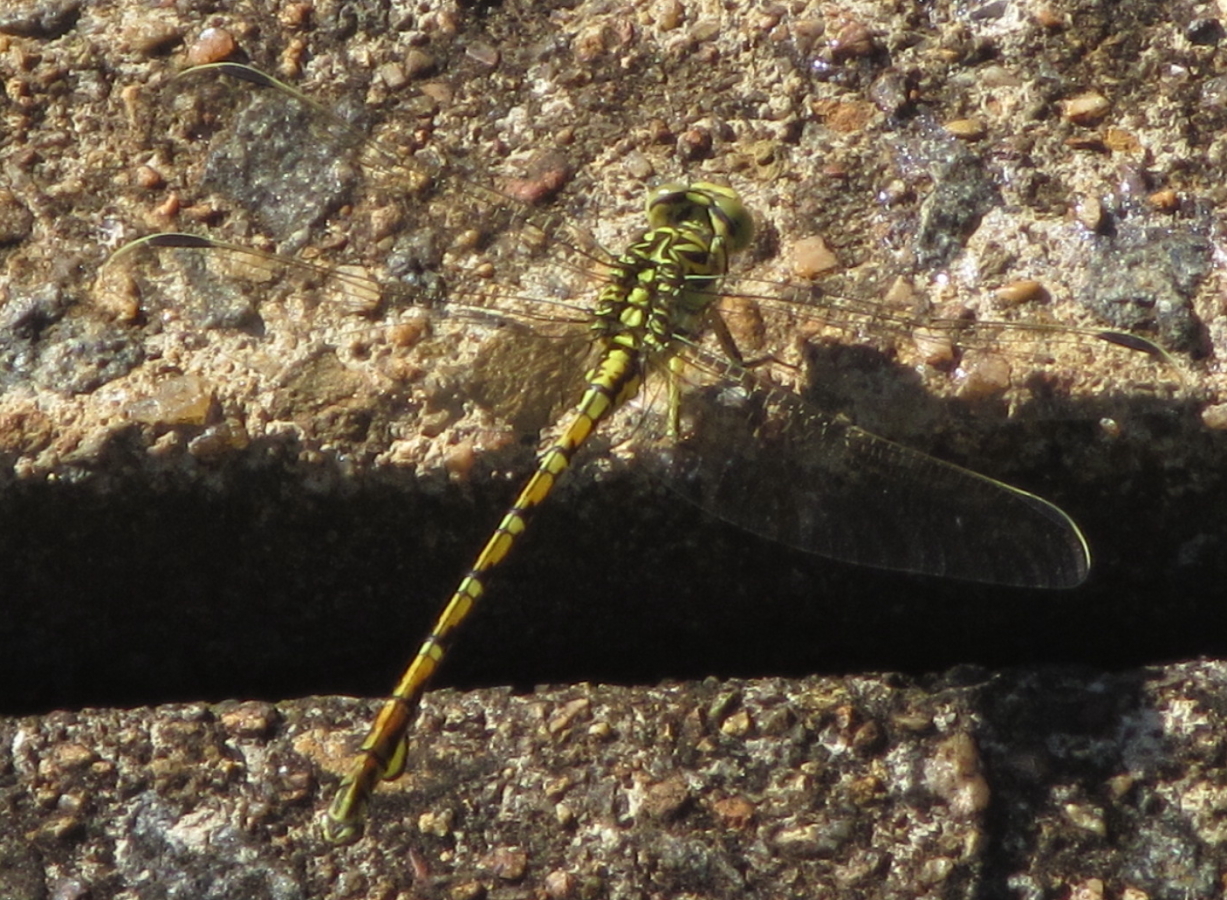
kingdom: Animalia
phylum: Arthropoda
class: Insecta
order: Odonata
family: Gomphidae
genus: Ceratogomphus
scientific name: Ceratogomphus pictus
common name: Common thorntail
